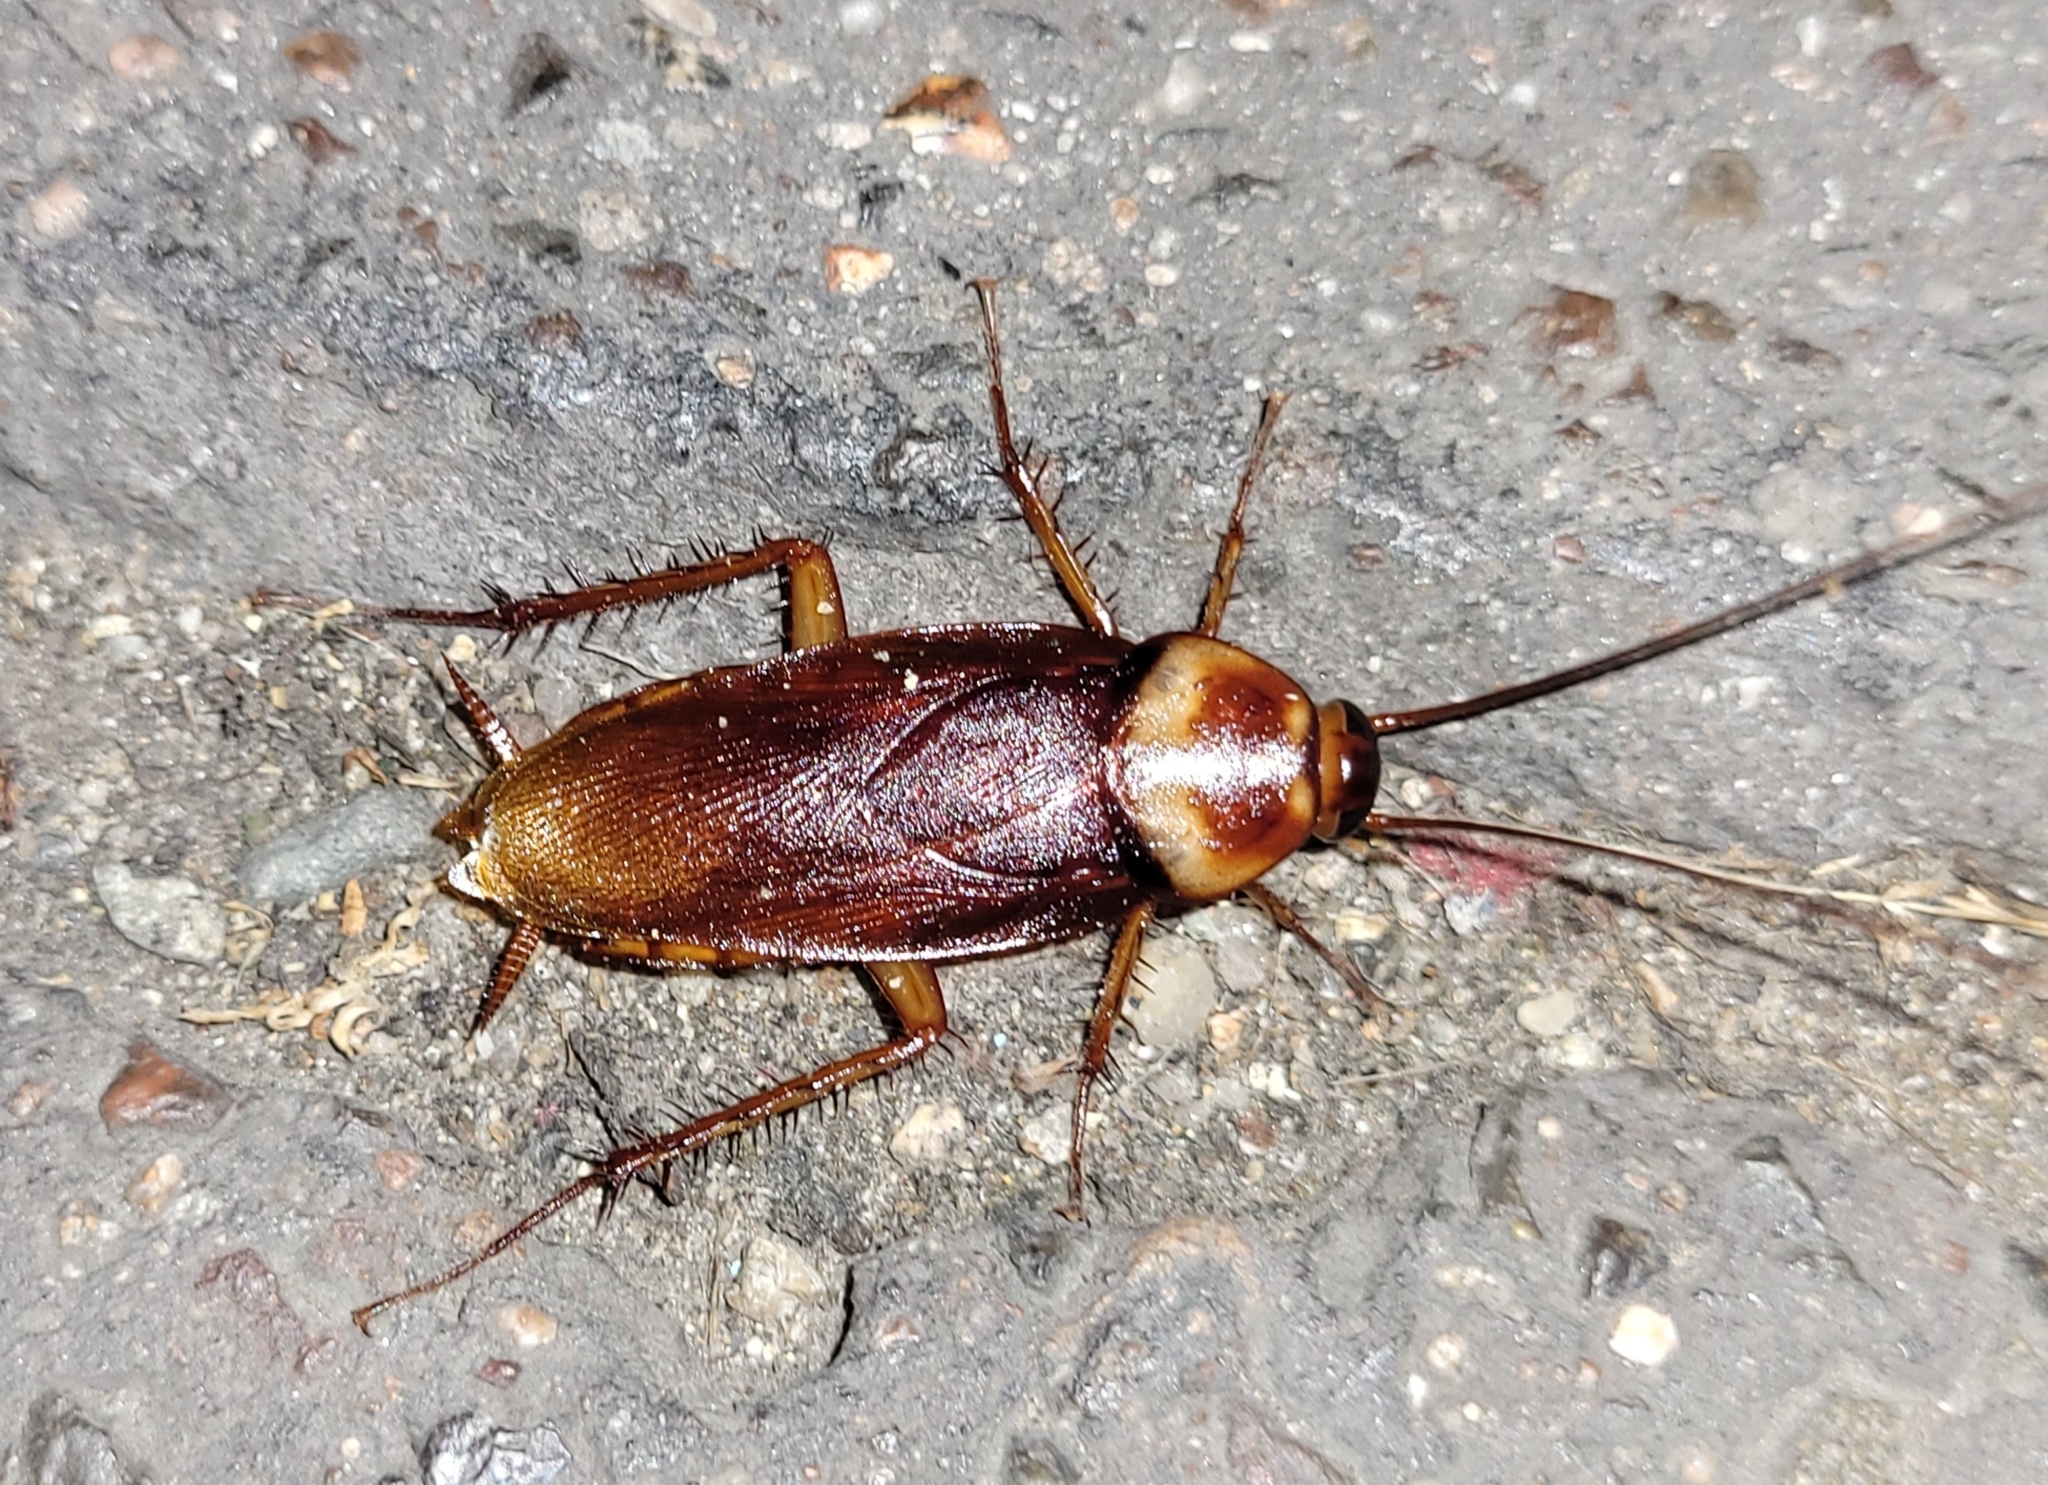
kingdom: Animalia
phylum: Arthropoda
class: Insecta
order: Blattodea
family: Blattidae
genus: Periplaneta
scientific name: Periplaneta americana
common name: American cockroach
